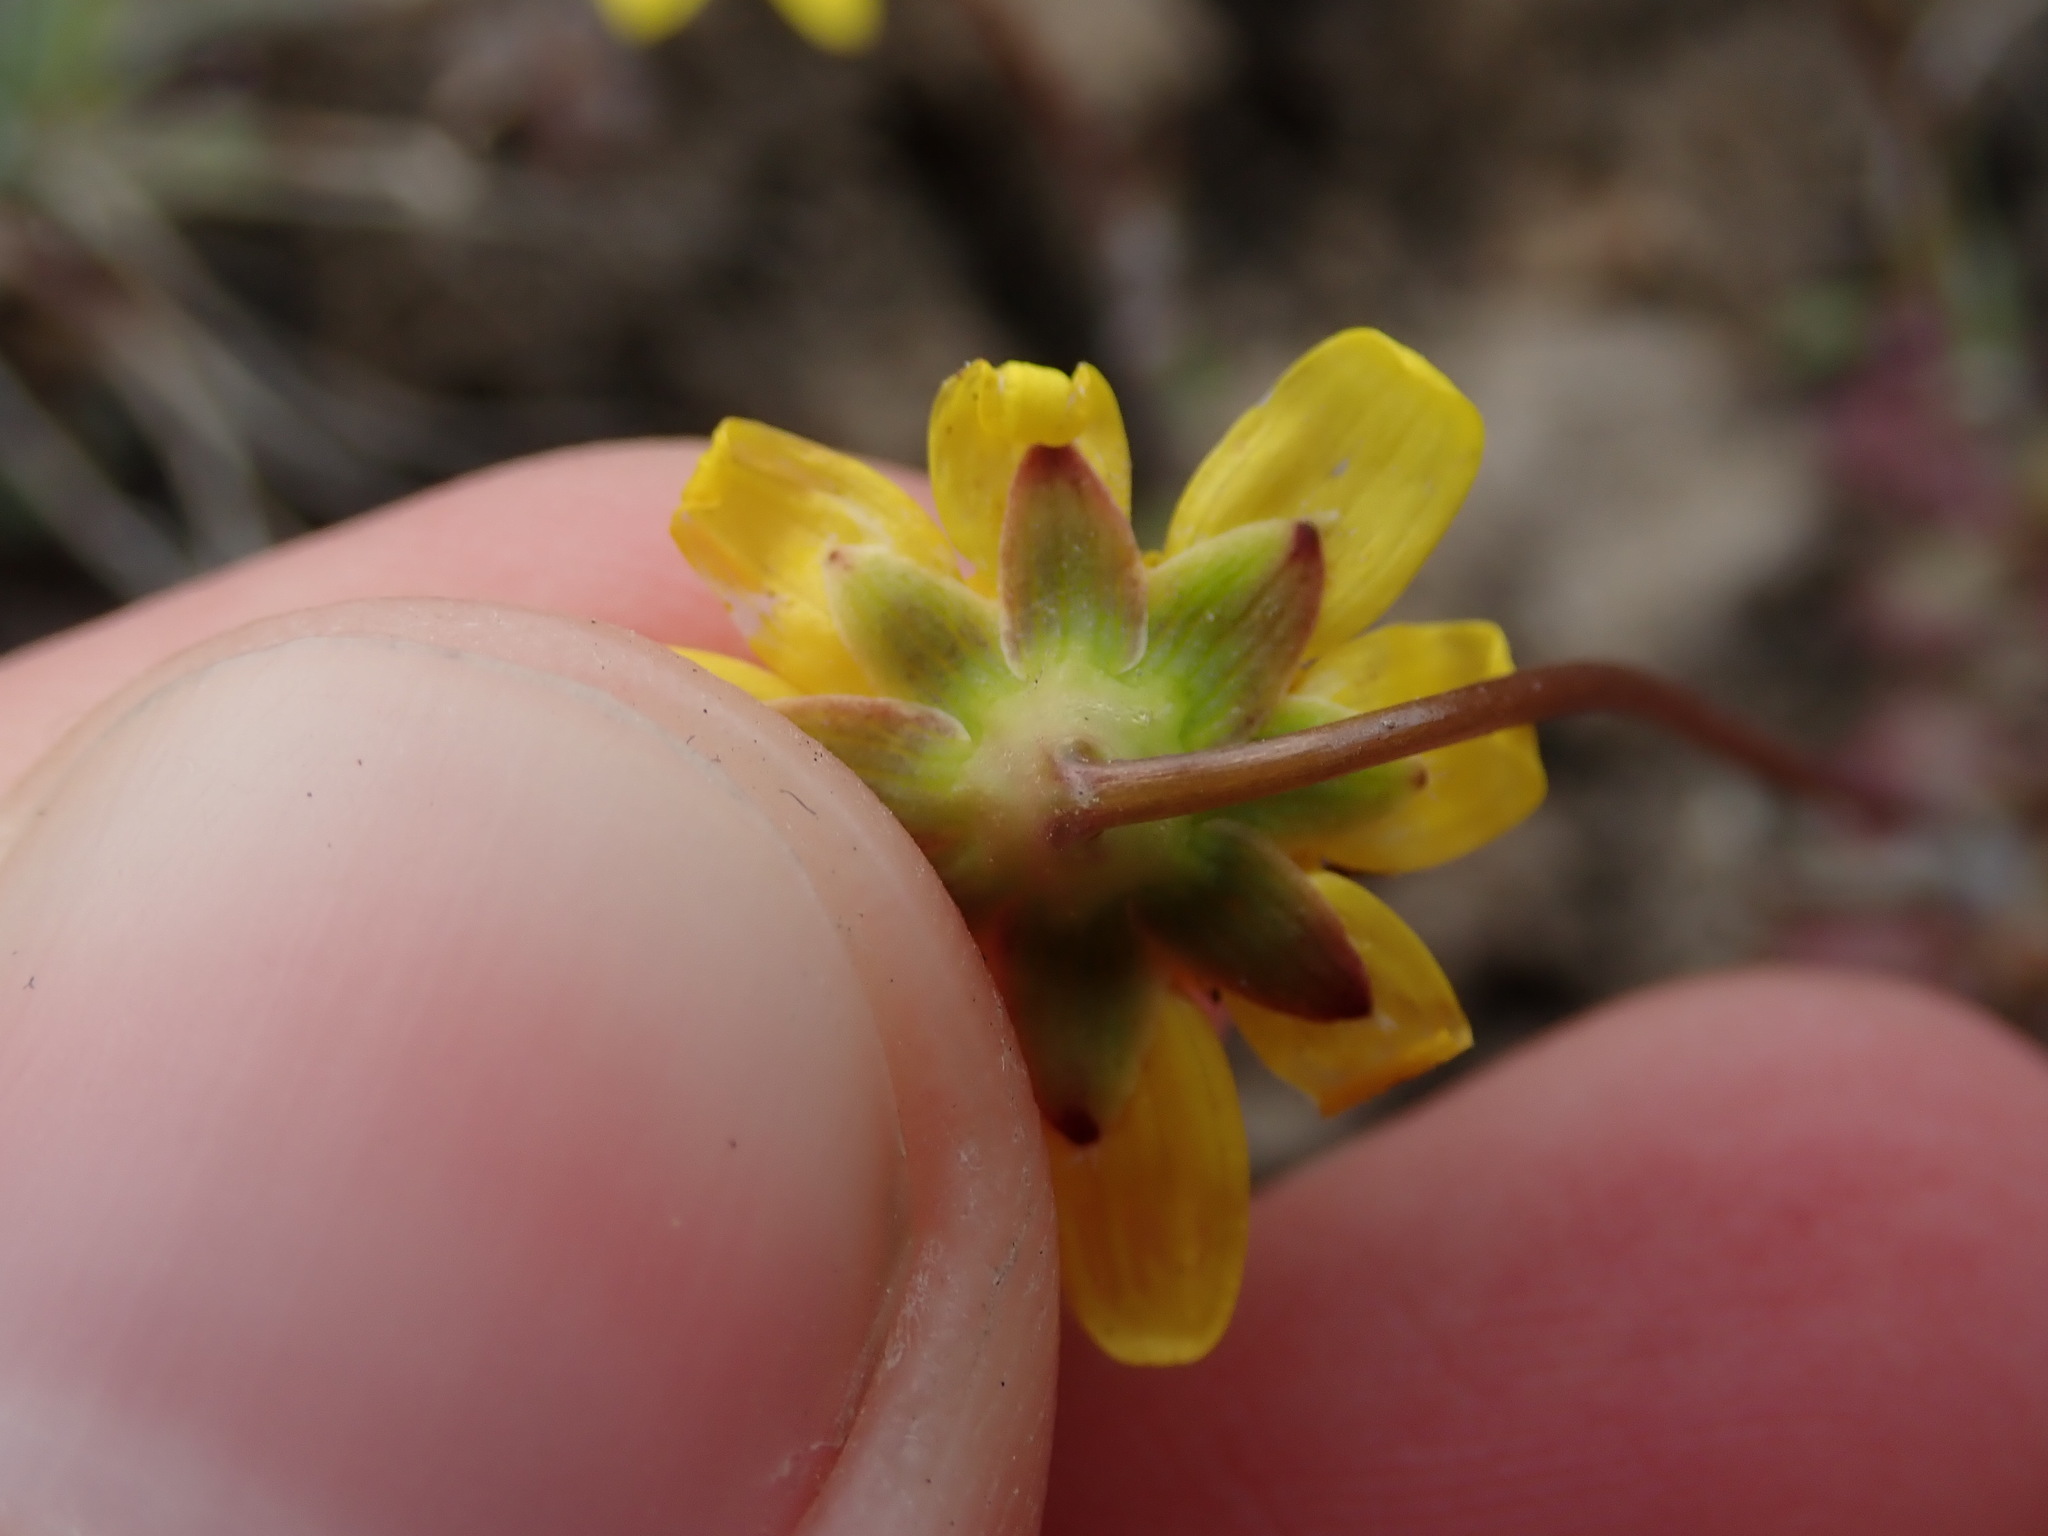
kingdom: Plantae
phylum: Tracheophyta
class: Magnoliopsida
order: Asterales
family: Asteraceae
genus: Crocidium
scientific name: Crocidium multicaule
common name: Common spring gold
